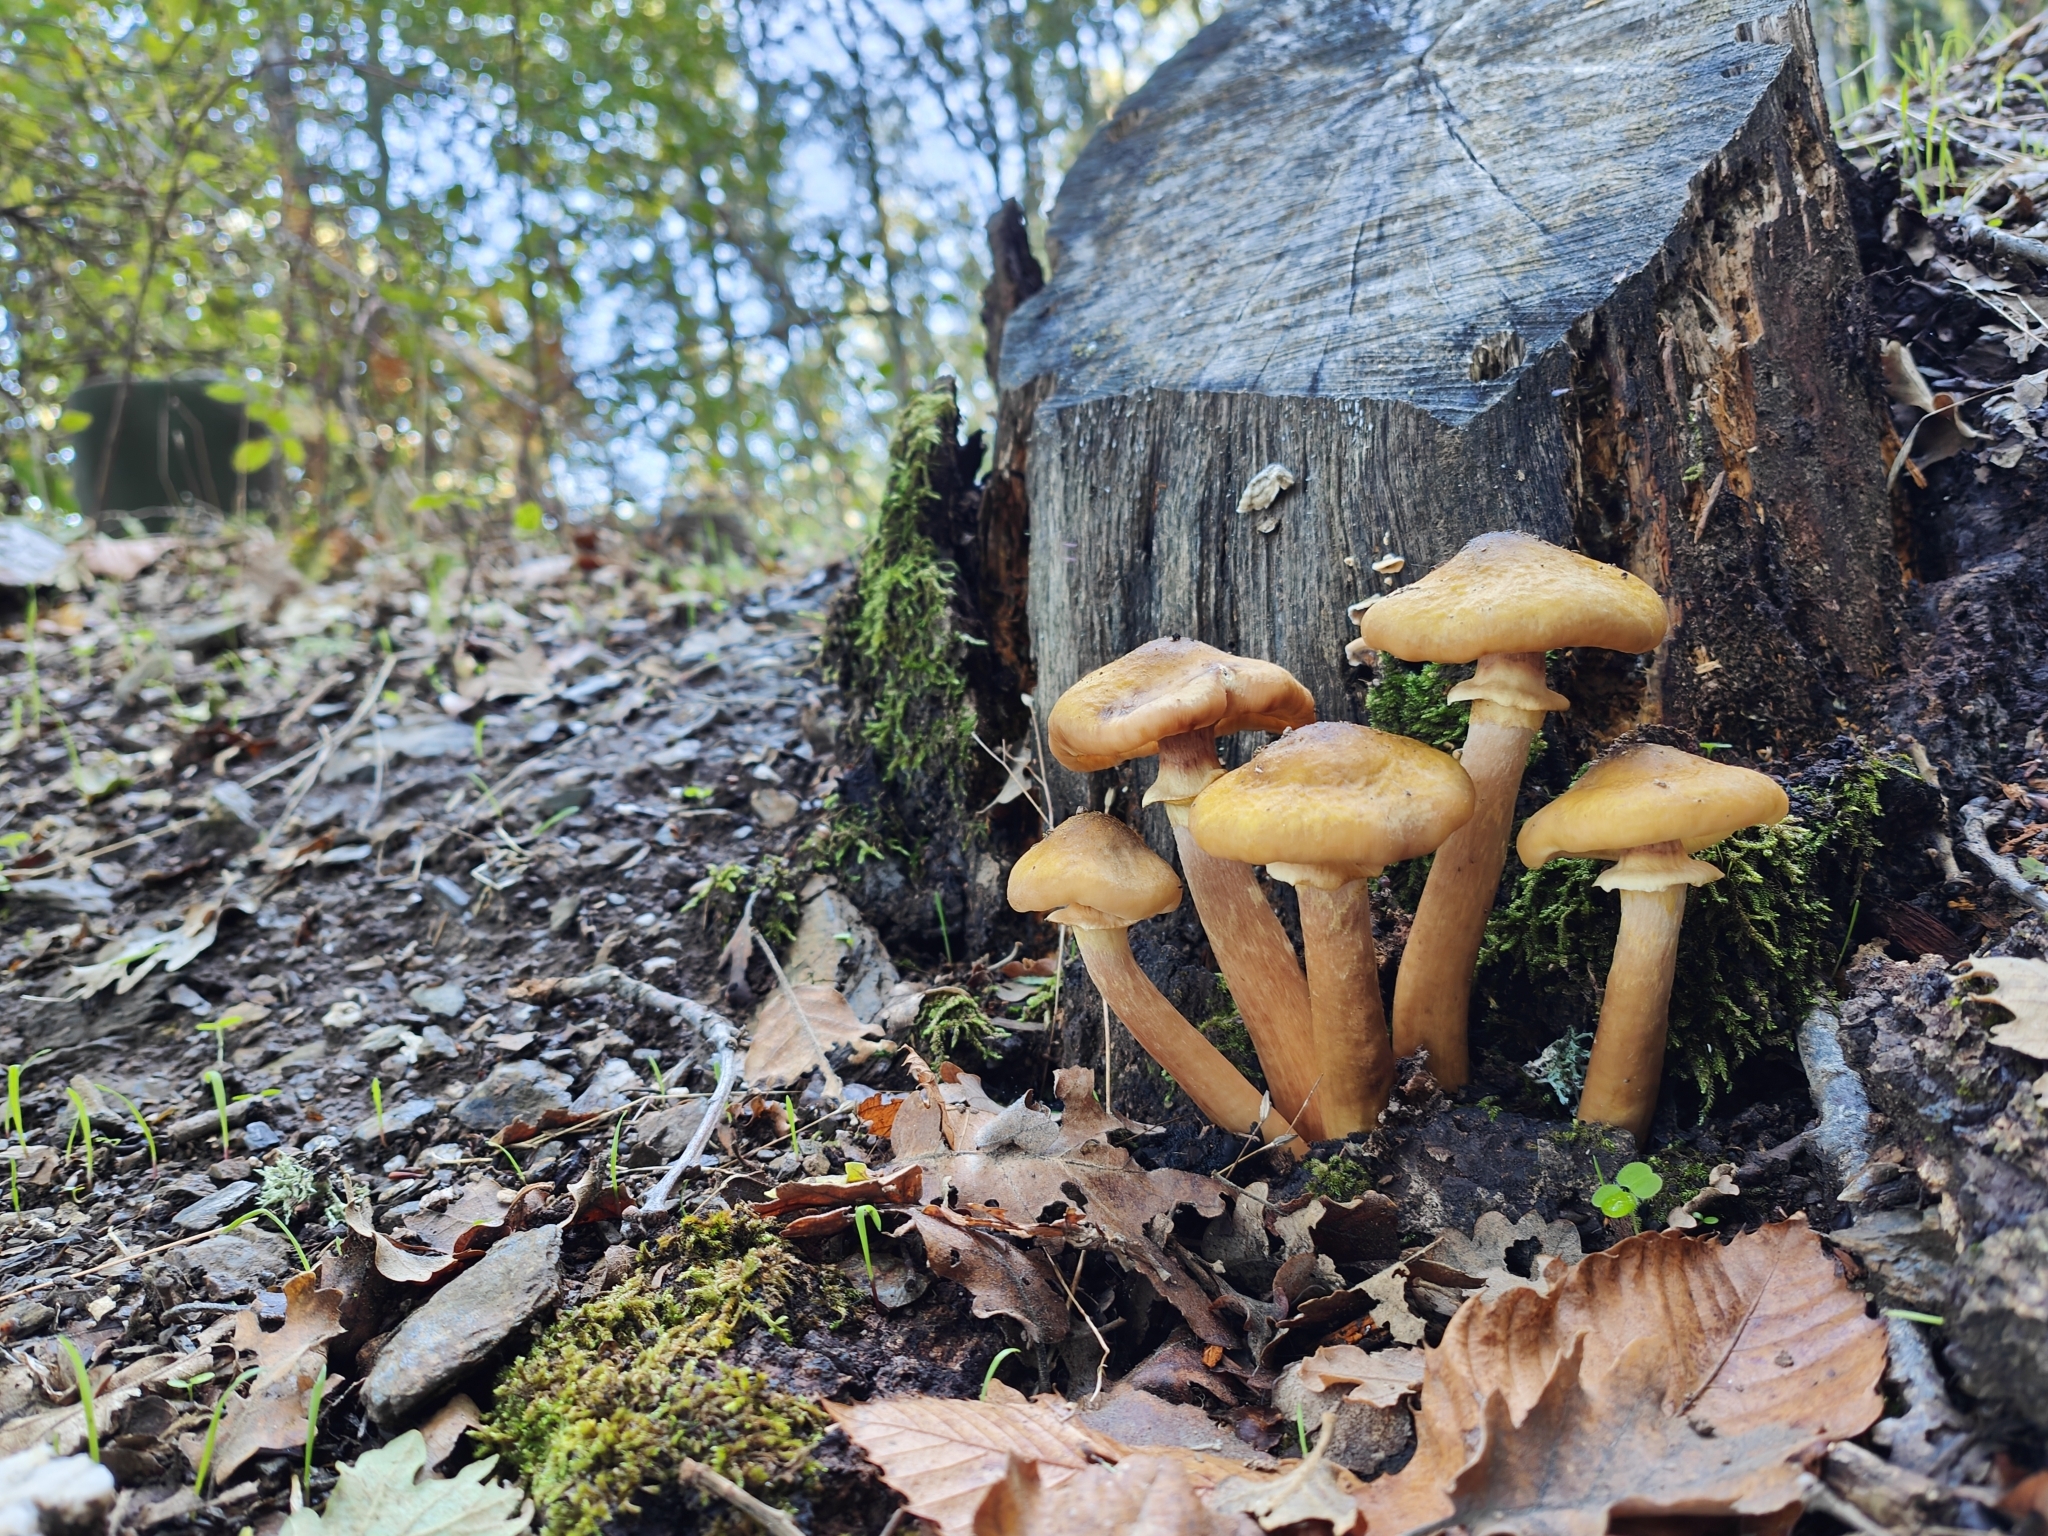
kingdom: Fungi
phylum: Basidiomycota
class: Agaricomycetes
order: Agaricales
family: Physalacriaceae
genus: Armillaria
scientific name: Armillaria mellea
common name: Honey fungus
